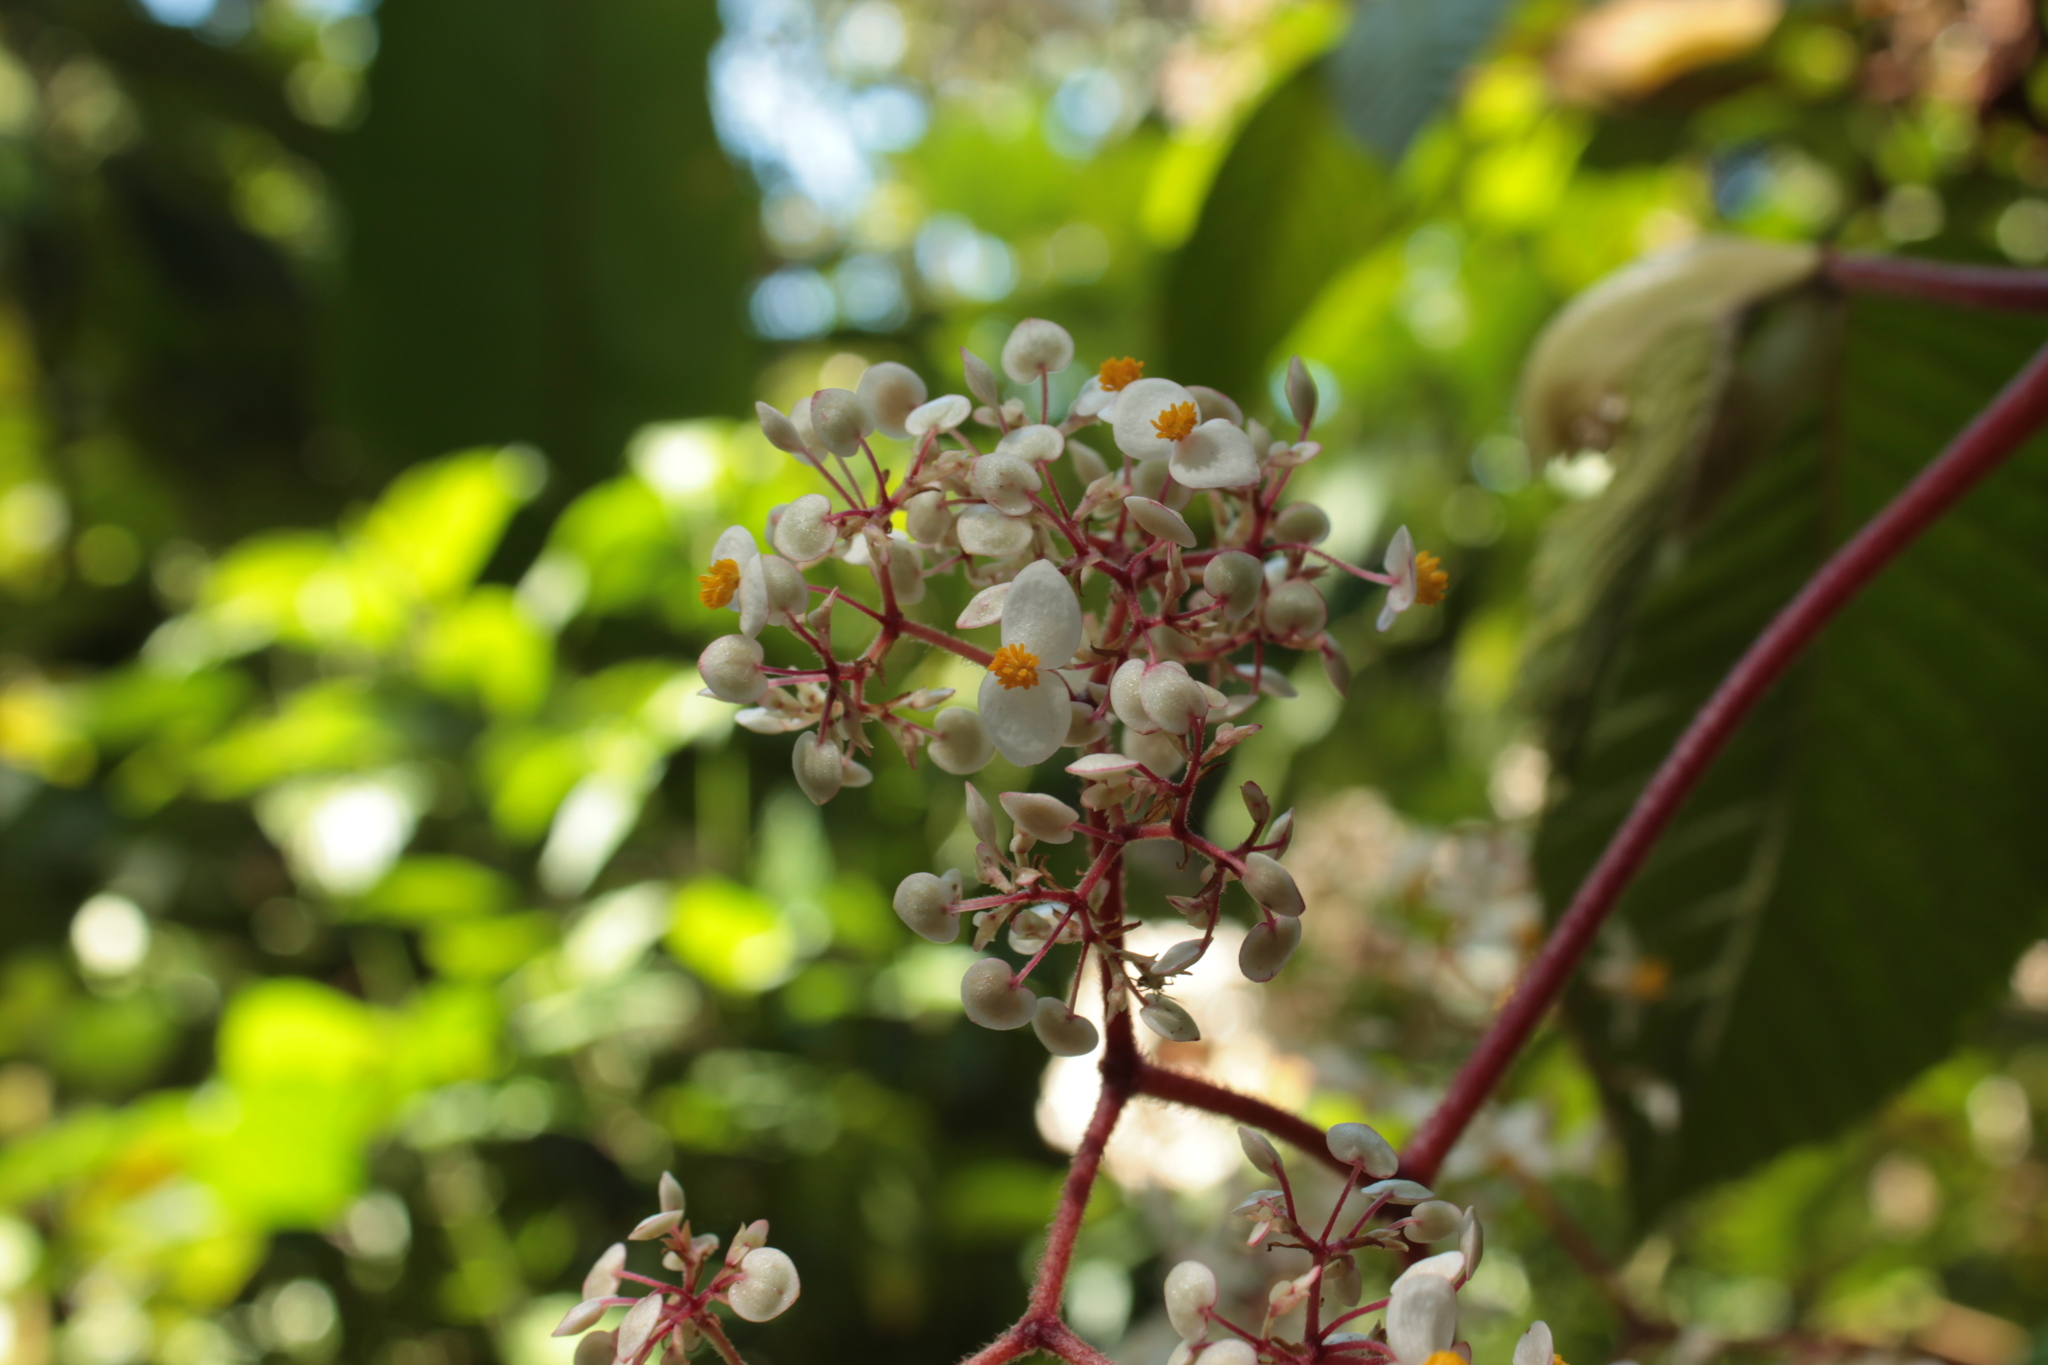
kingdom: Plantae
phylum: Tracheophyta
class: Magnoliopsida
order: Cucurbitales
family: Begoniaceae
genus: Begonia
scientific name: Begonia cooperi
